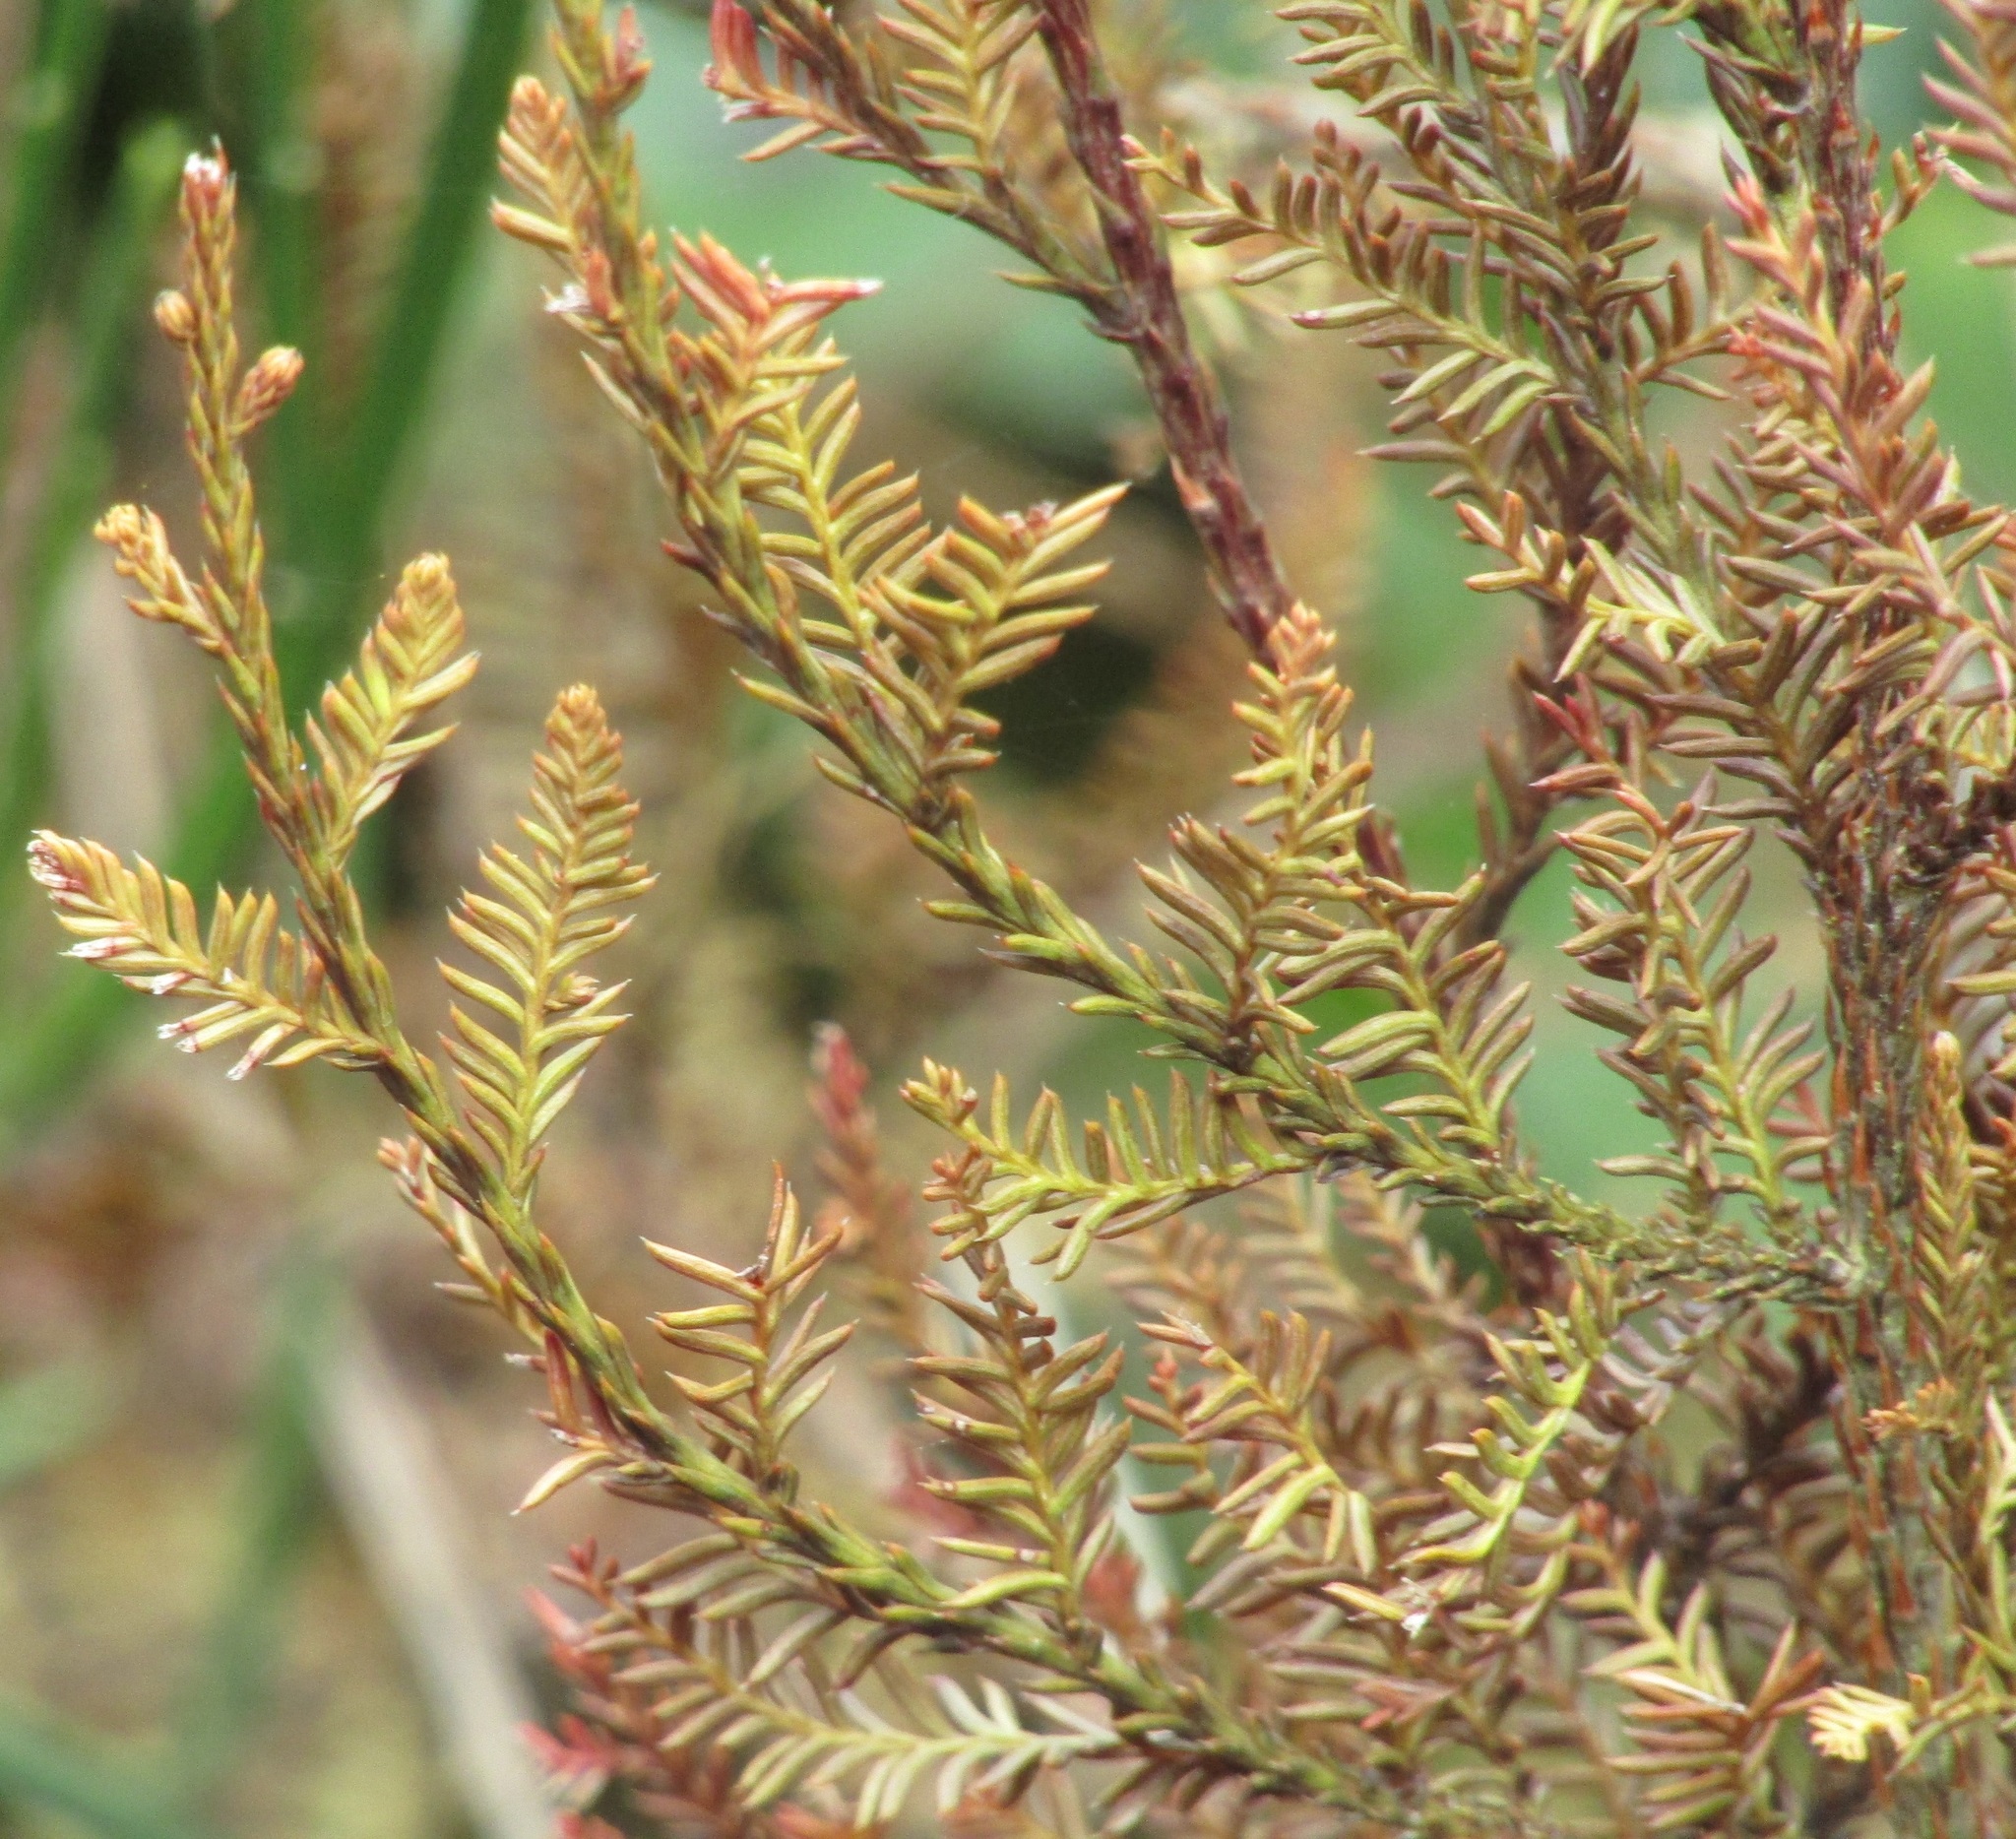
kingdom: Plantae
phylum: Tracheophyta
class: Pinopsida
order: Pinales
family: Podocarpaceae
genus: Dacrycarpus
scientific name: Dacrycarpus dacrydioides
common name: White pine
